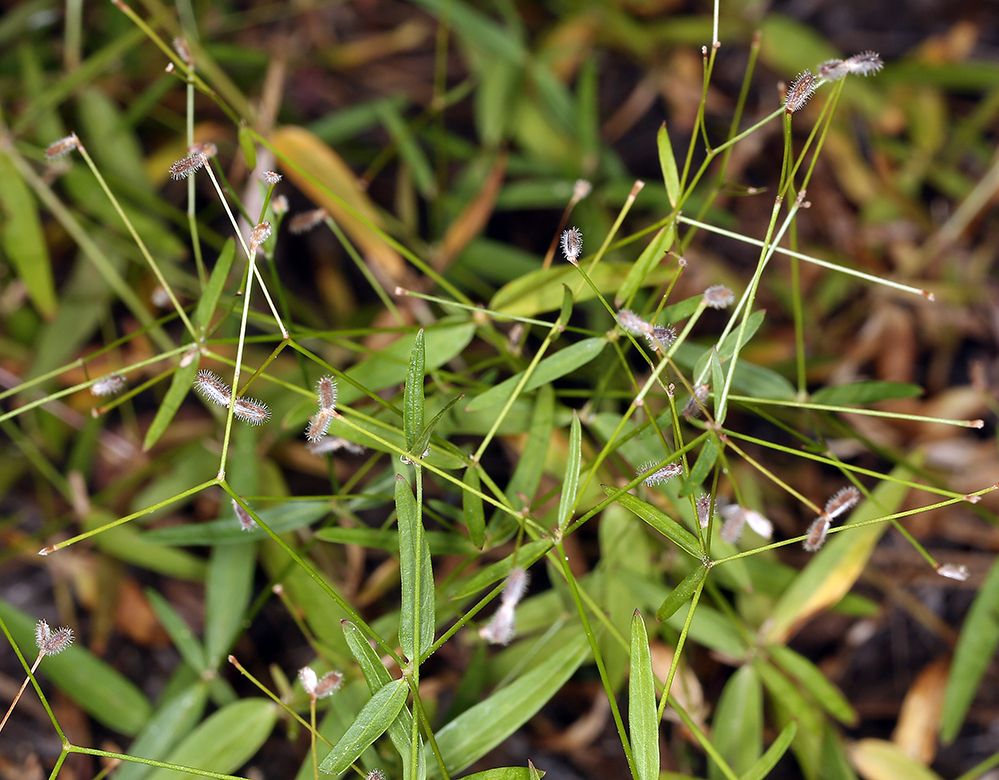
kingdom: Plantae
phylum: Tracheophyta
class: Magnoliopsida
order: Gentianales
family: Rubiaceae
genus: Kelloggia
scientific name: Kelloggia galioides
